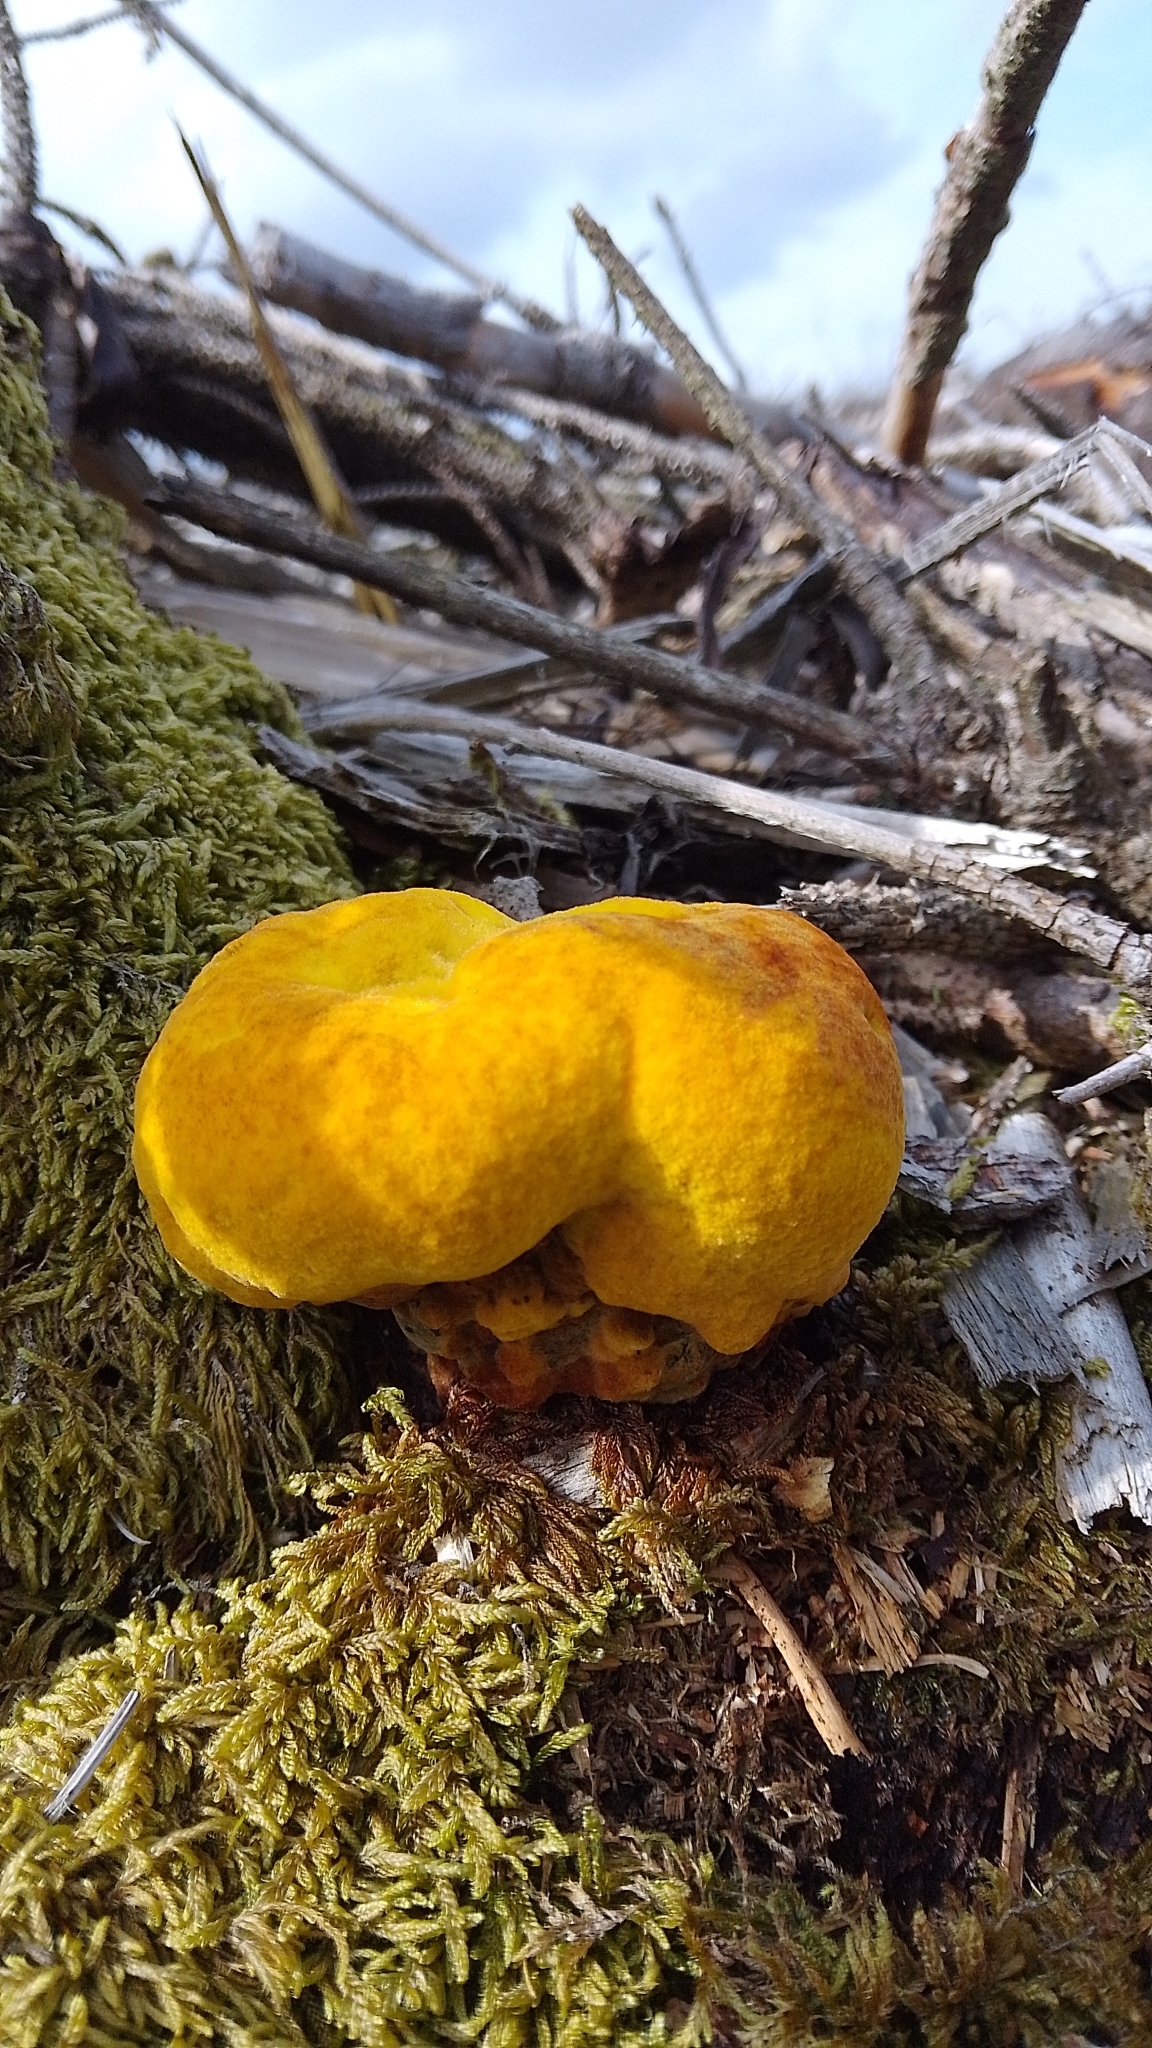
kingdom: Fungi
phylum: Basidiomycota
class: Agaricomycetes
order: Polyporales
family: Laetiporaceae
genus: Phaeolus
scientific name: Phaeolus schweinitzii
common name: Dyer's mazegill
